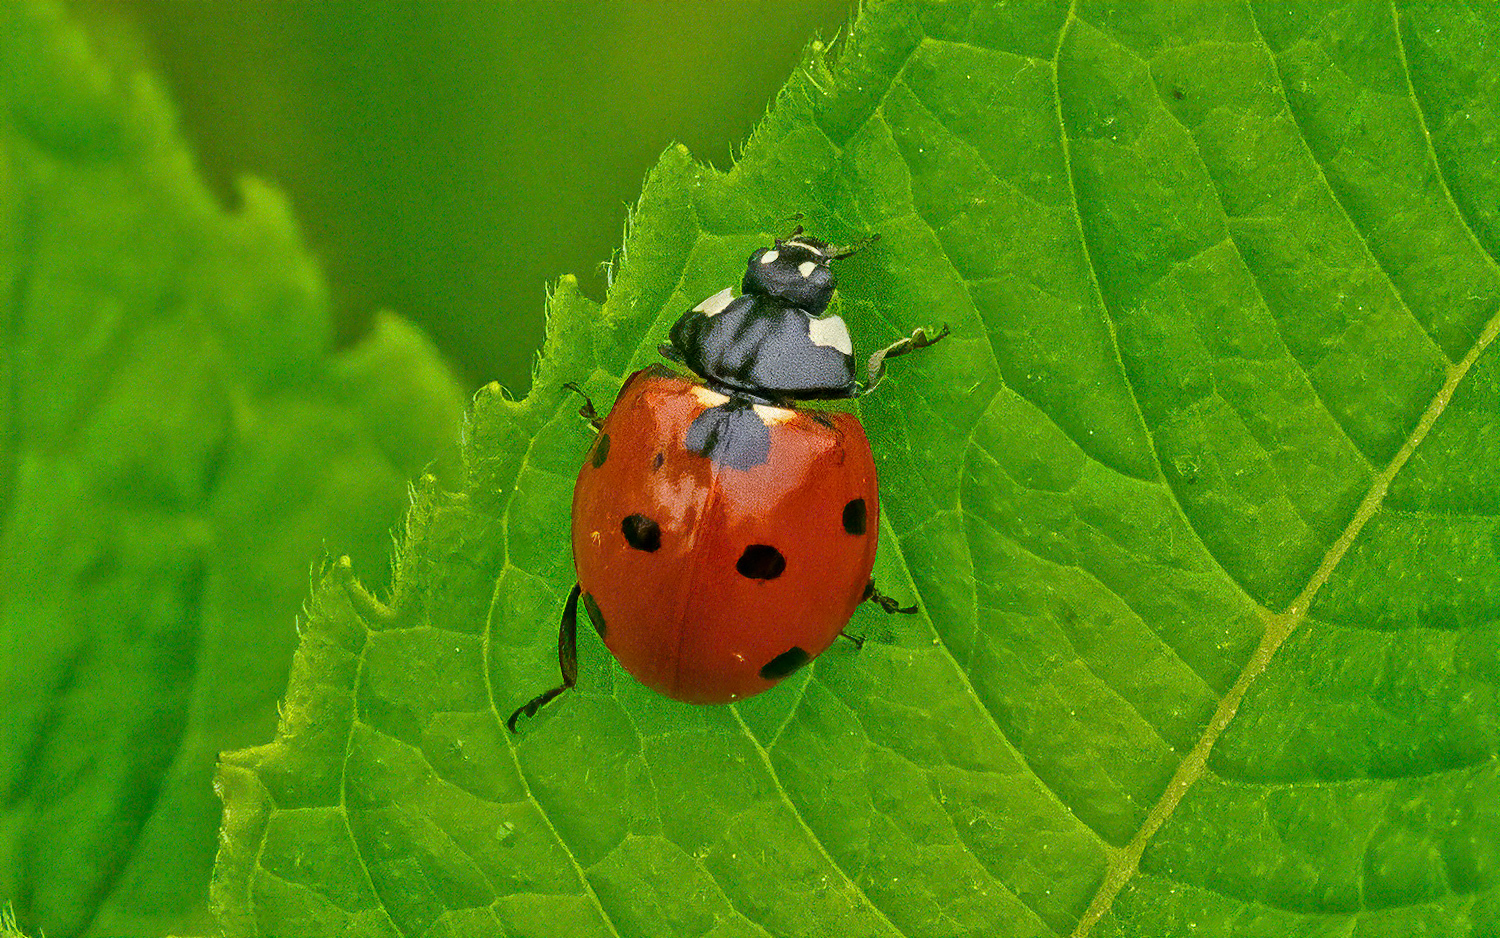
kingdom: Animalia
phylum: Arthropoda
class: Insecta
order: Coleoptera
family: Coccinellidae
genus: Coccinella
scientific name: Coccinella septempunctata
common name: Sevenspotted lady beetle
